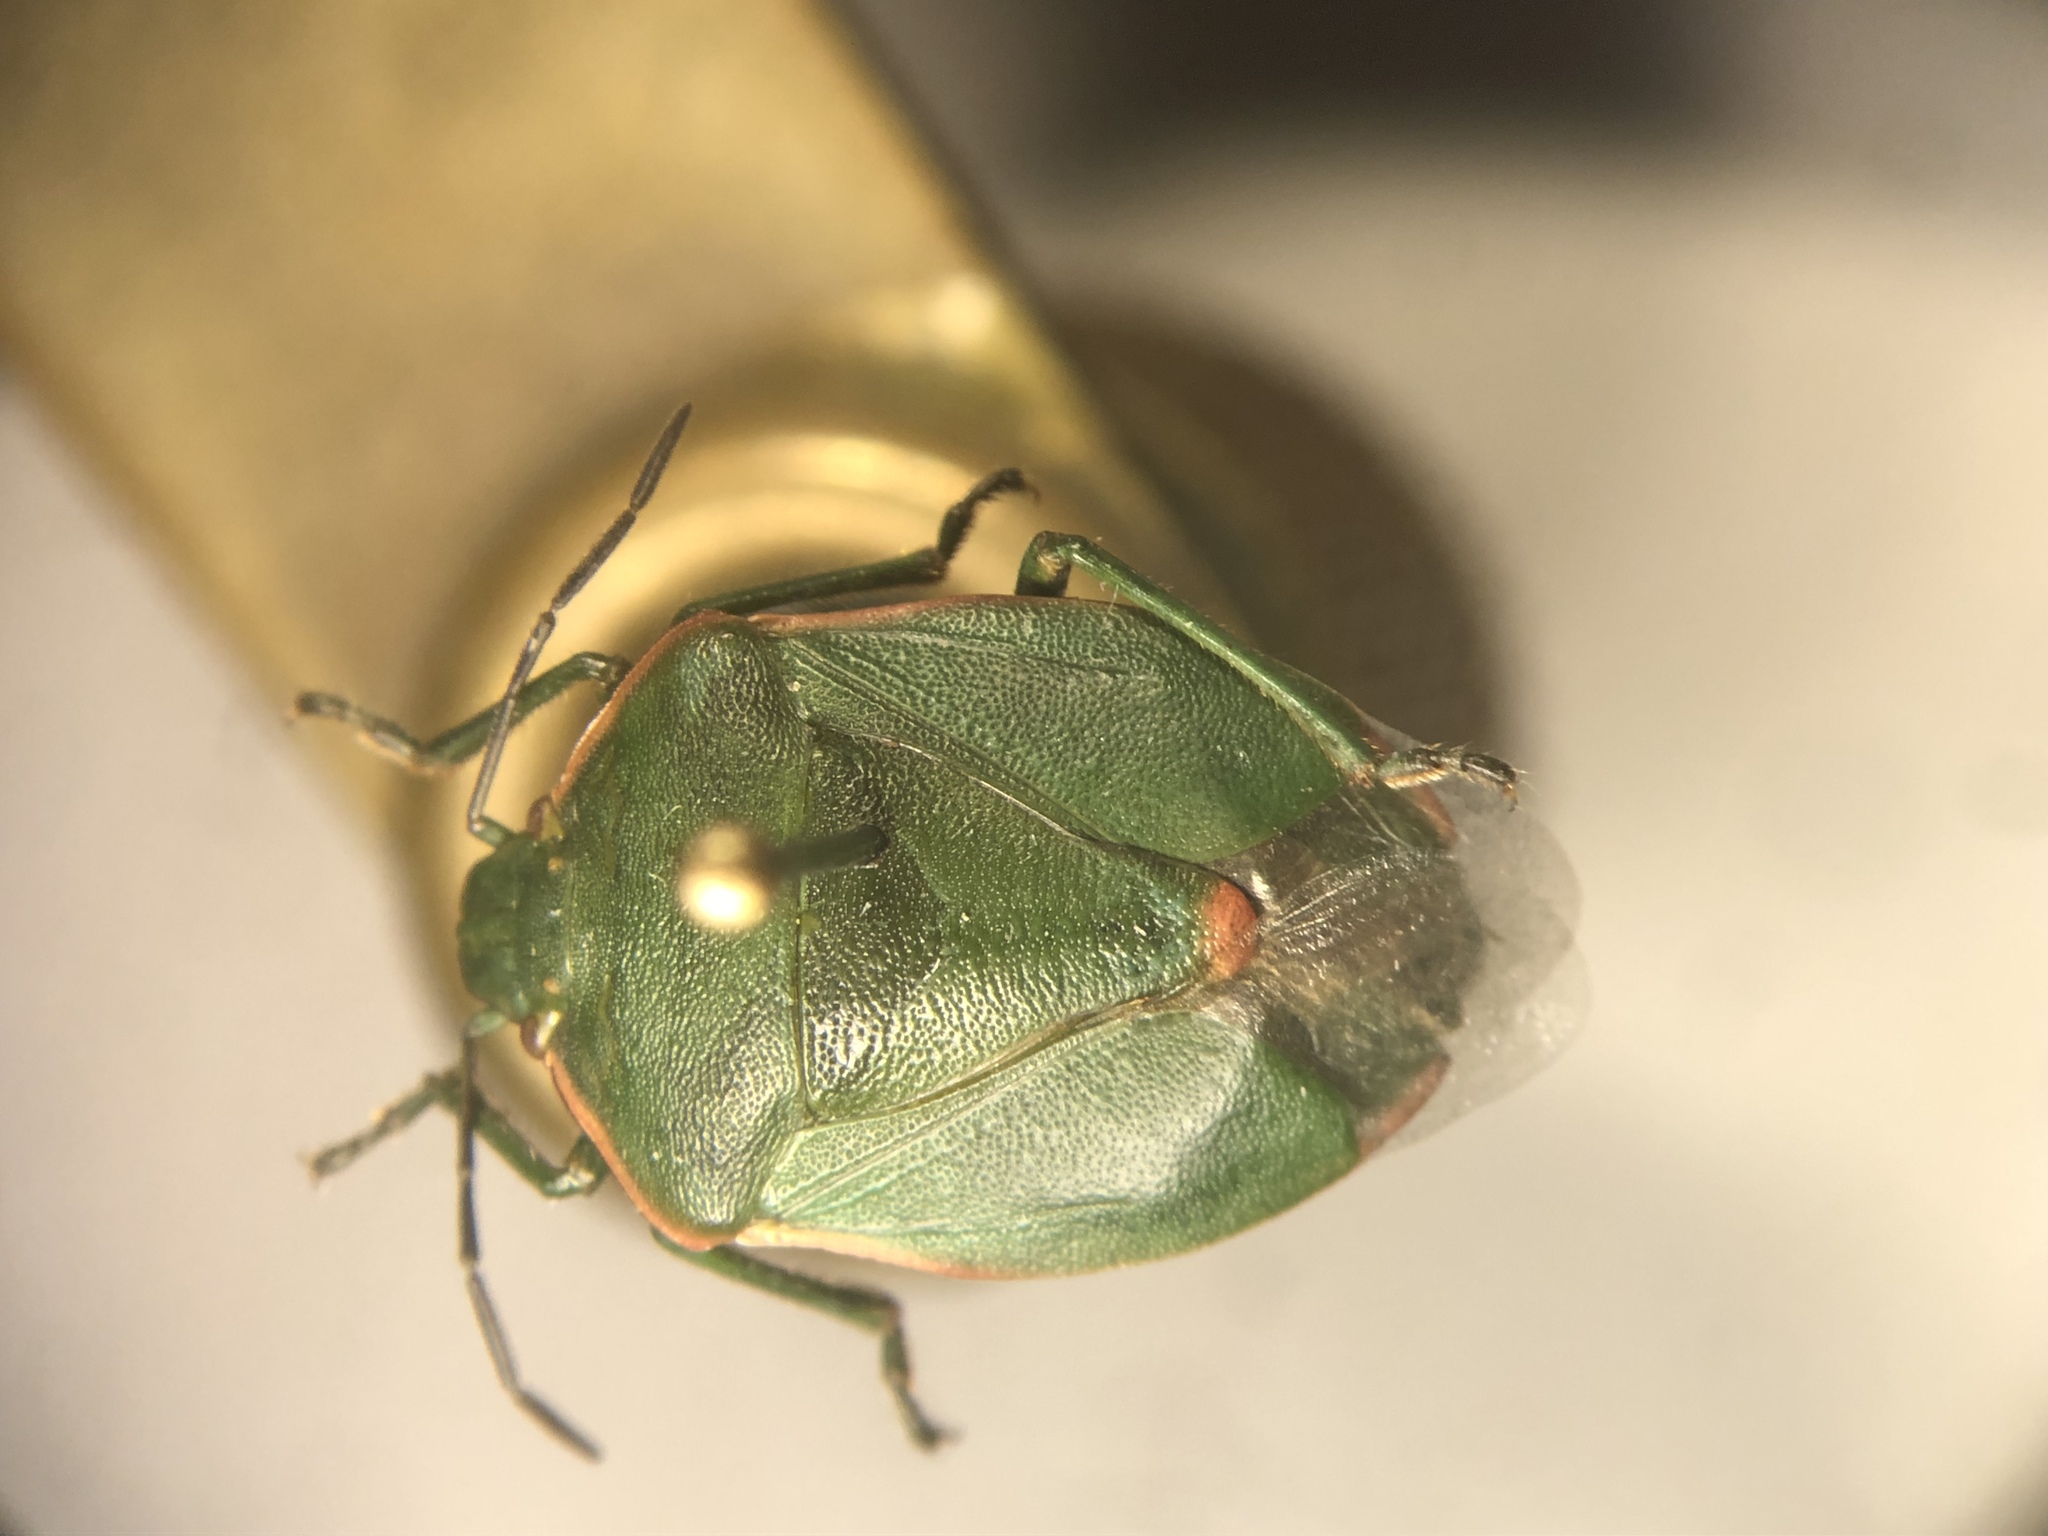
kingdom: Animalia
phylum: Arthropoda
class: Insecta
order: Hemiptera
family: Pentatomidae
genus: Chlorochroa
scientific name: Chlorochroa persimilis
